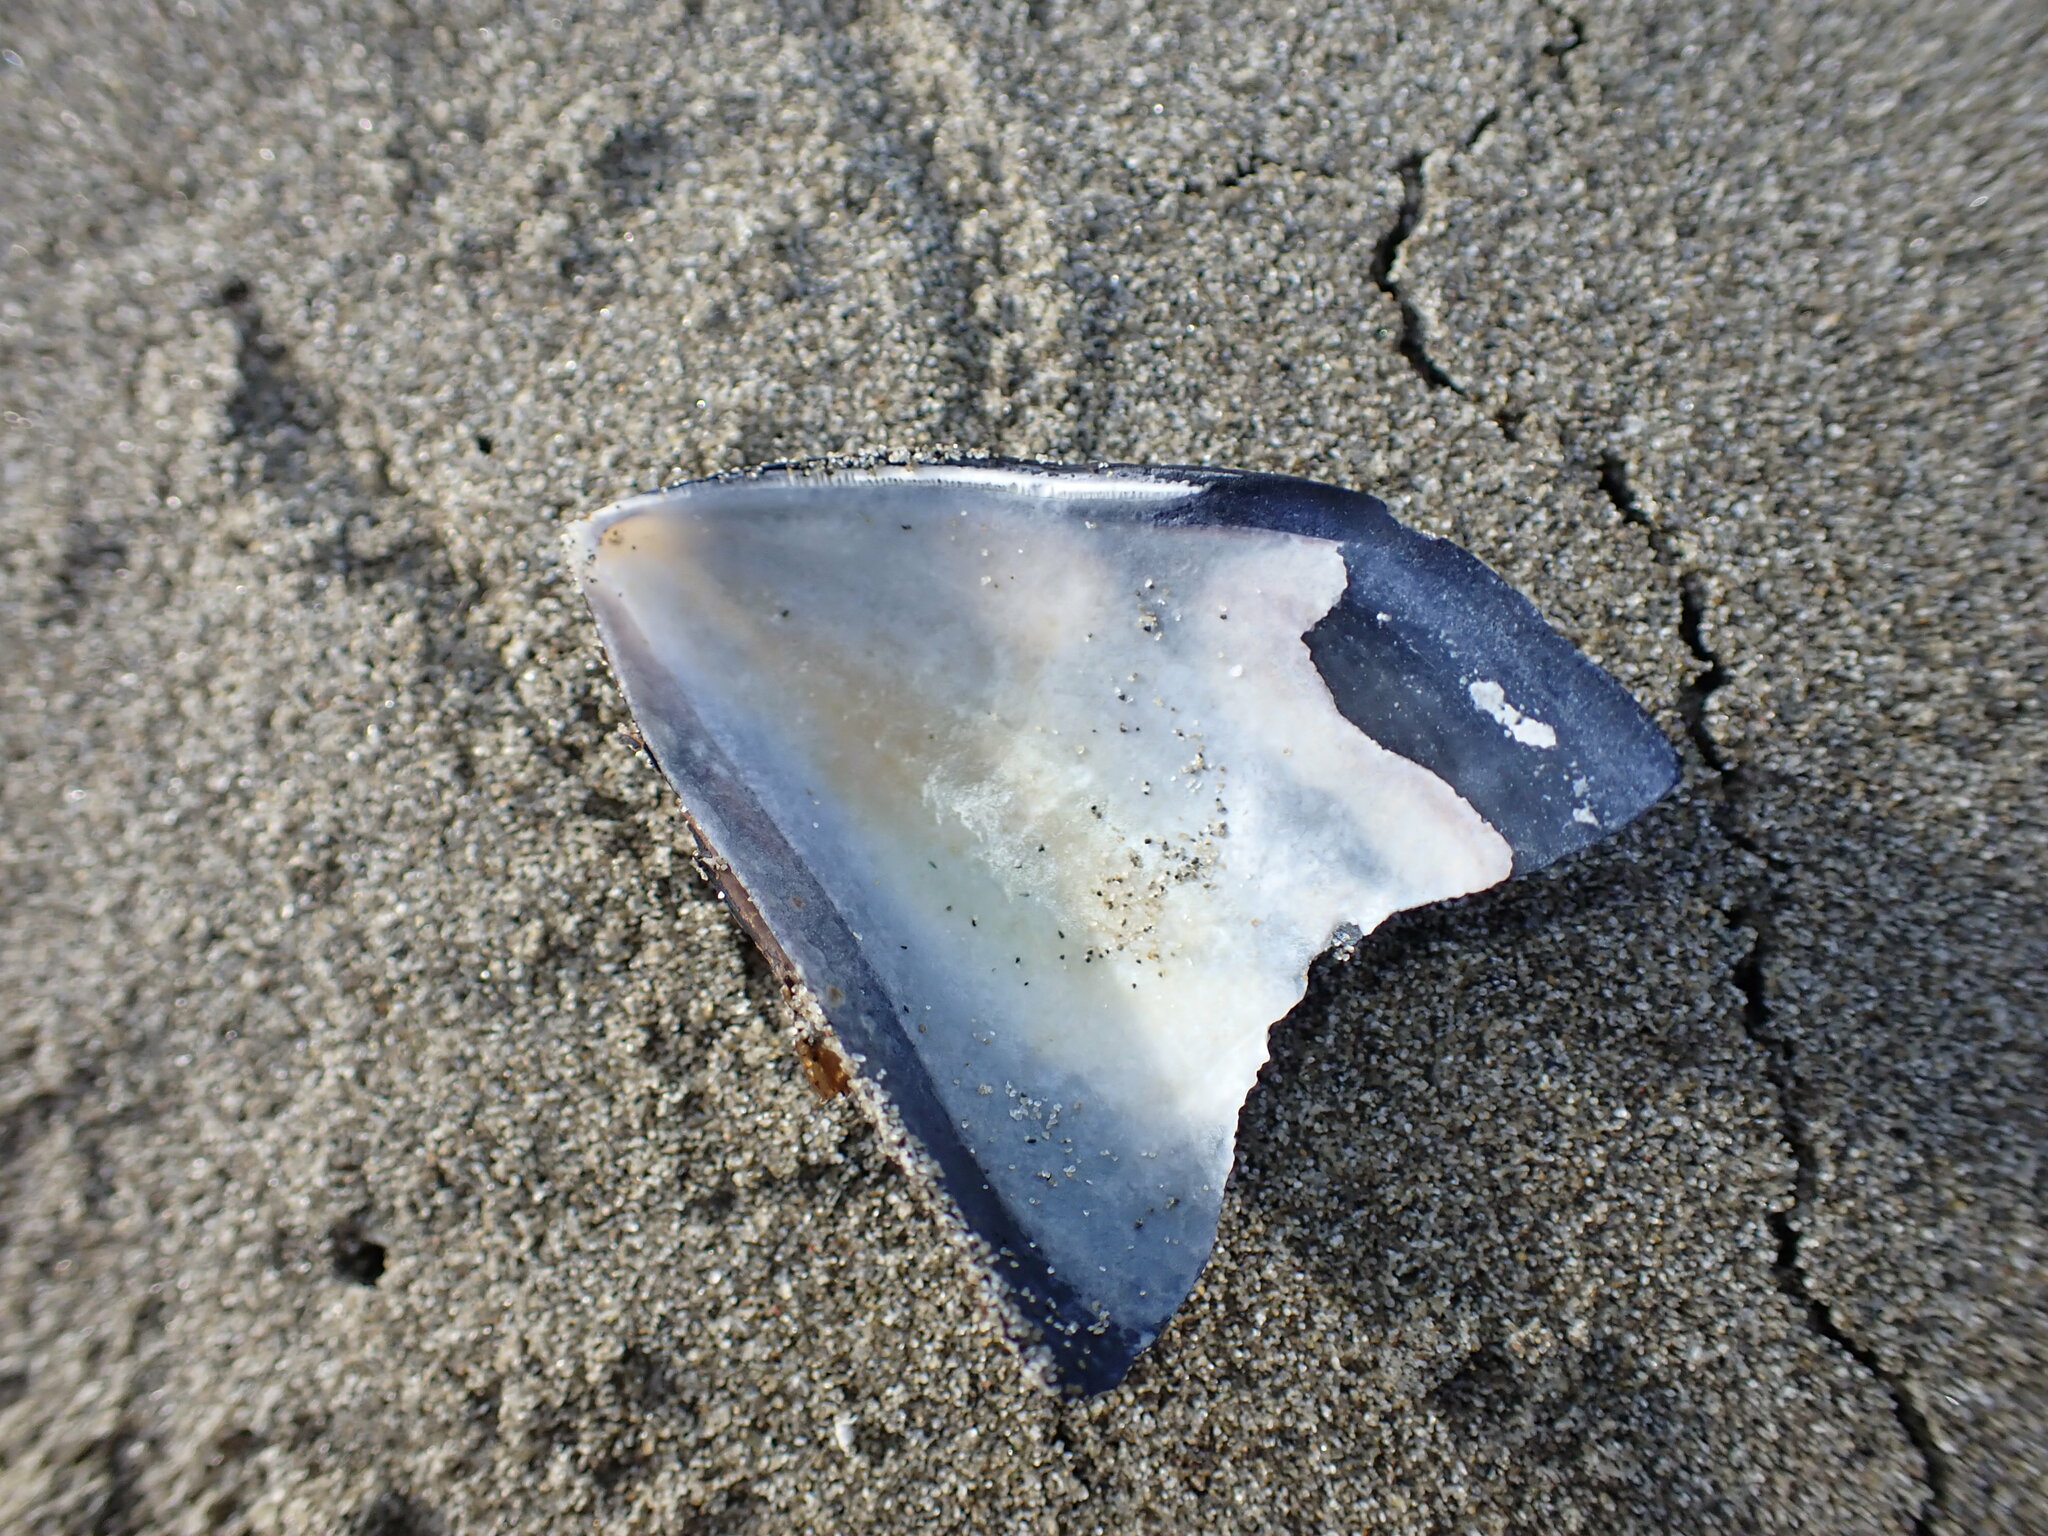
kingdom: Animalia
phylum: Mollusca
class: Bivalvia
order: Mytilida
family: Mytilidae
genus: Mytilus
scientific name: Mytilus planulatus
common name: Australian mussel
